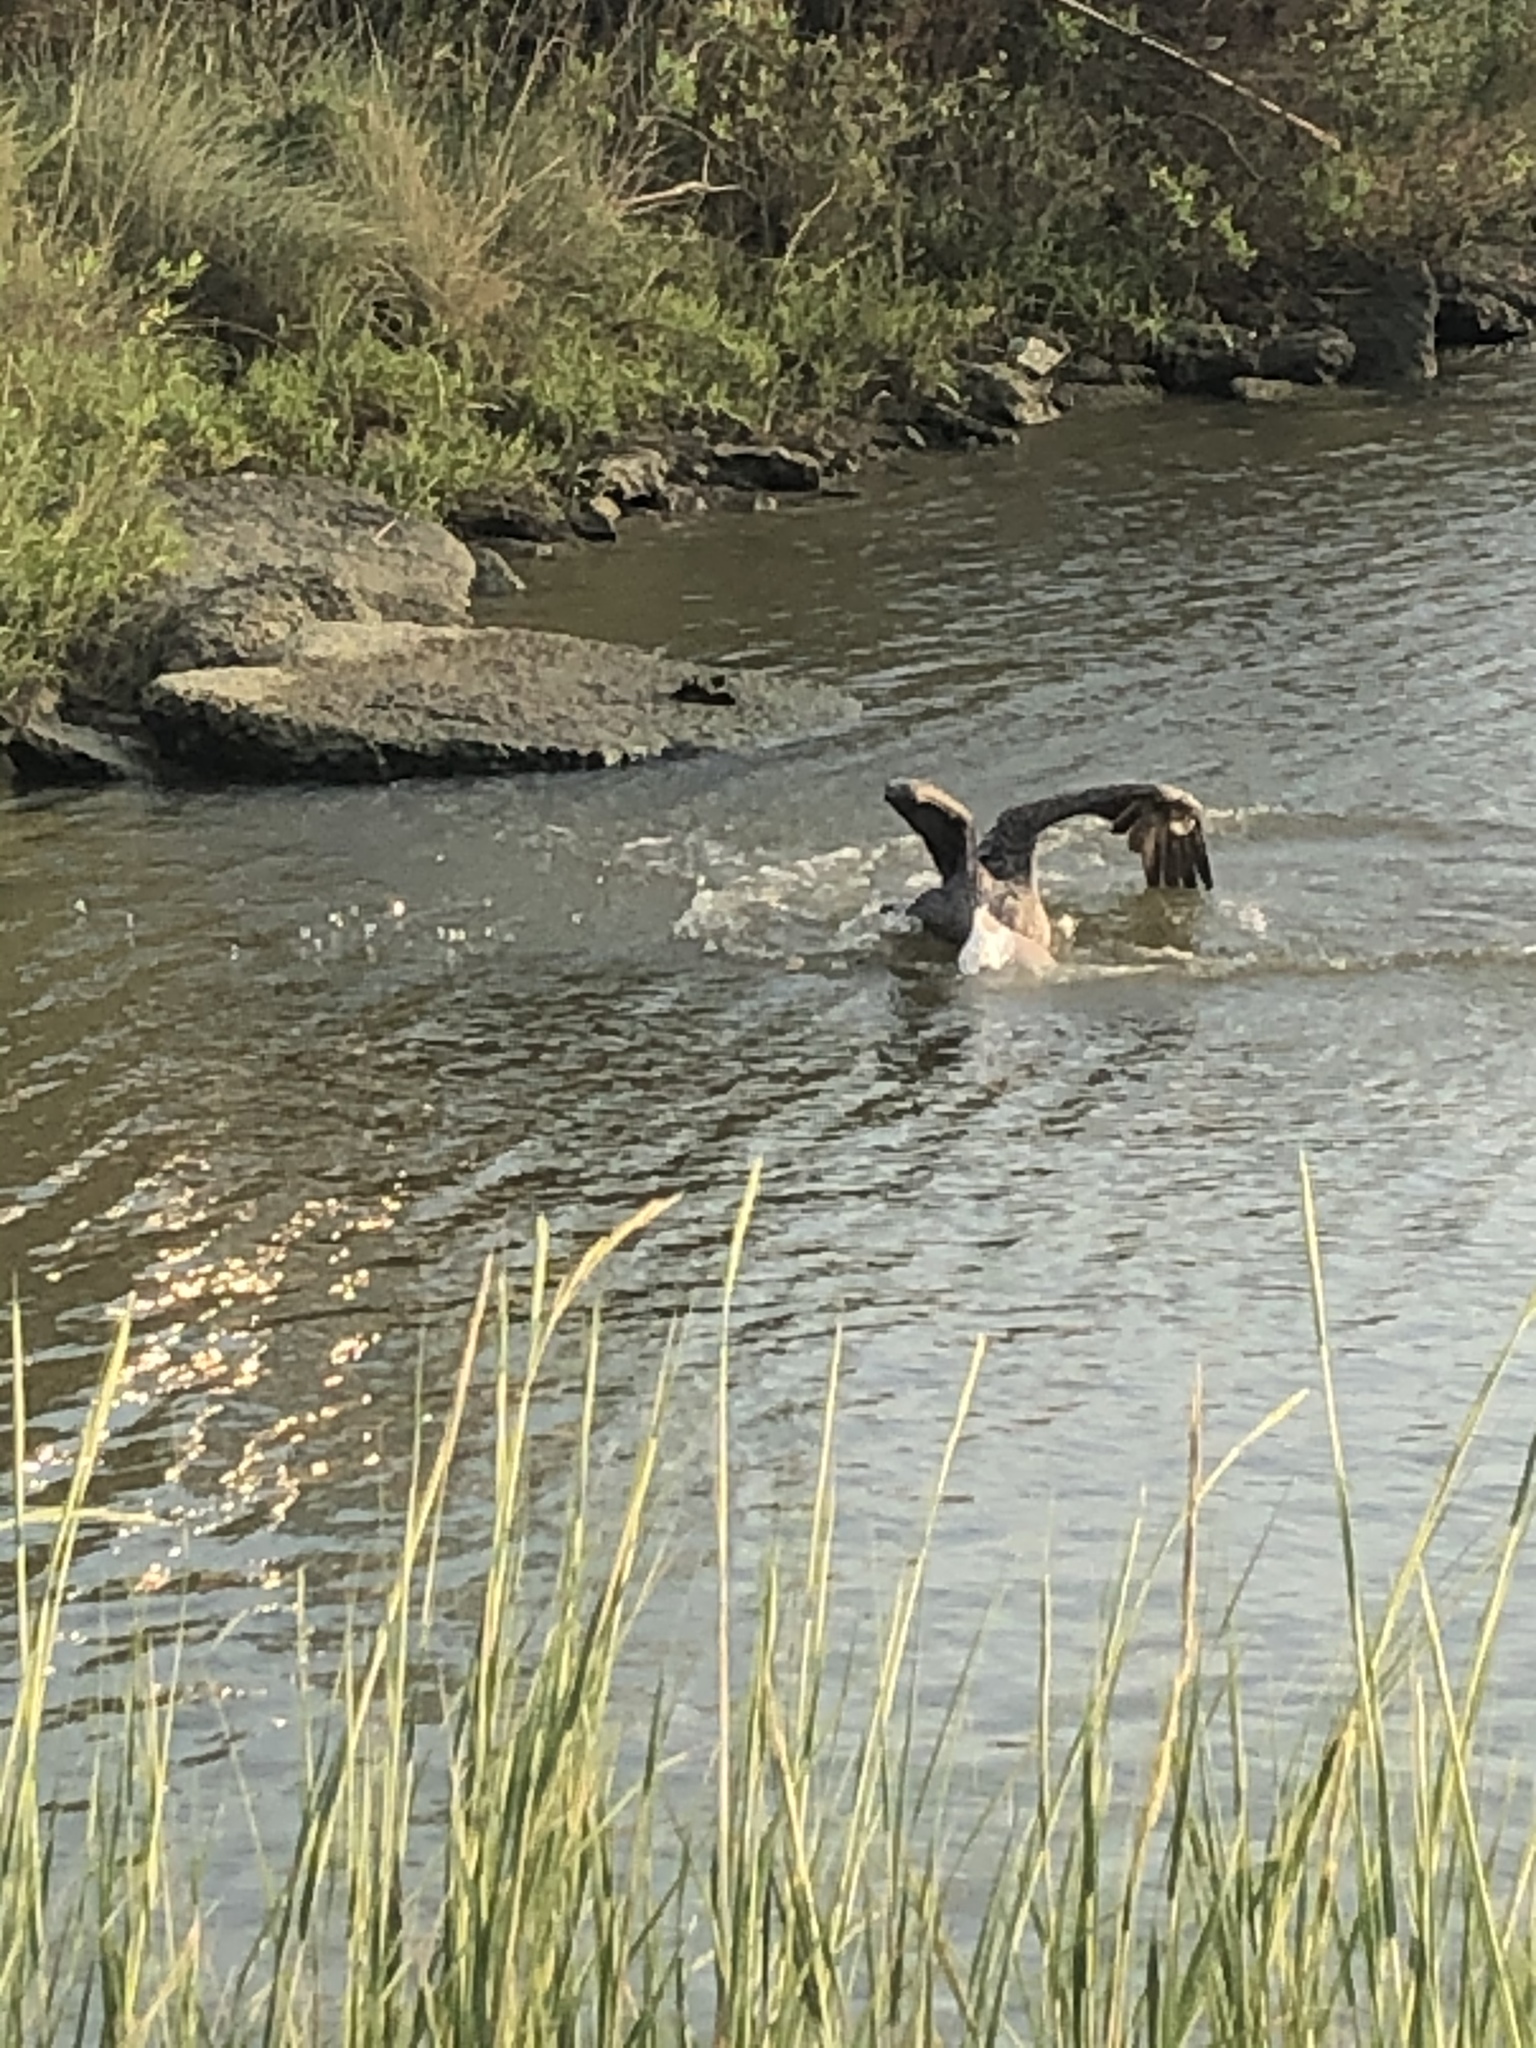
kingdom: Animalia
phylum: Chordata
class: Aves
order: Pelecaniformes
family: Pelecanidae
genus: Pelecanus
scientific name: Pelecanus occidentalis
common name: Brown pelican
